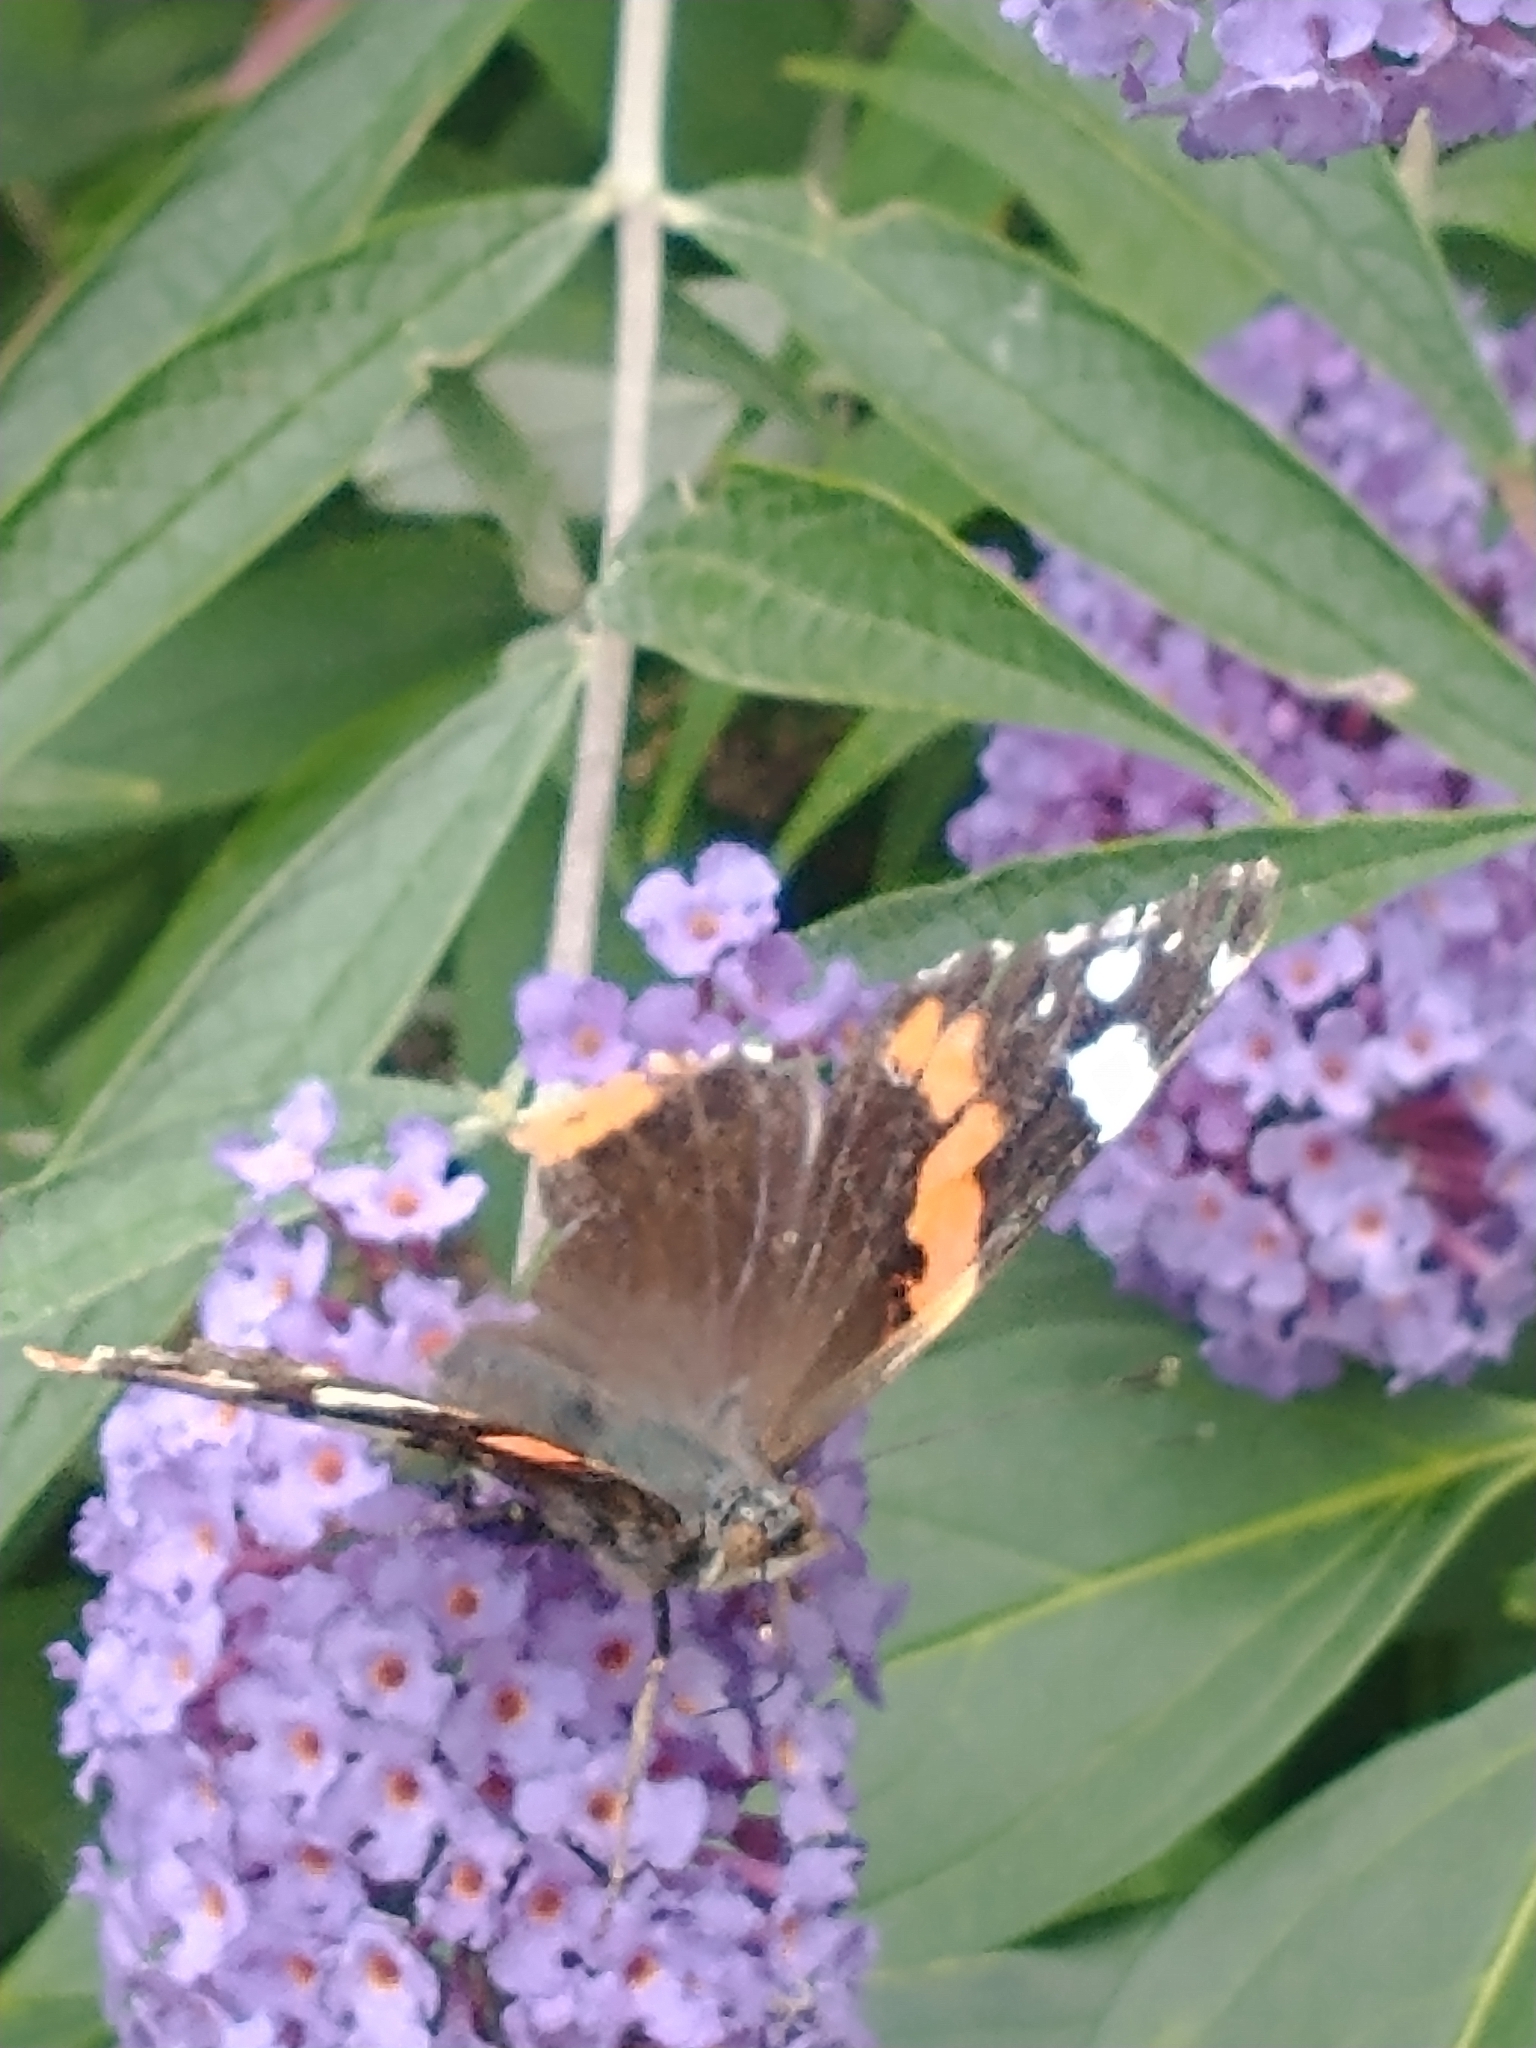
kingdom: Animalia
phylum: Arthropoda
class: Insecta
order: Lepidoptera
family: Nymphalidae
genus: Vanessa
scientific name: Vanessa atalanta
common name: Red admiral
